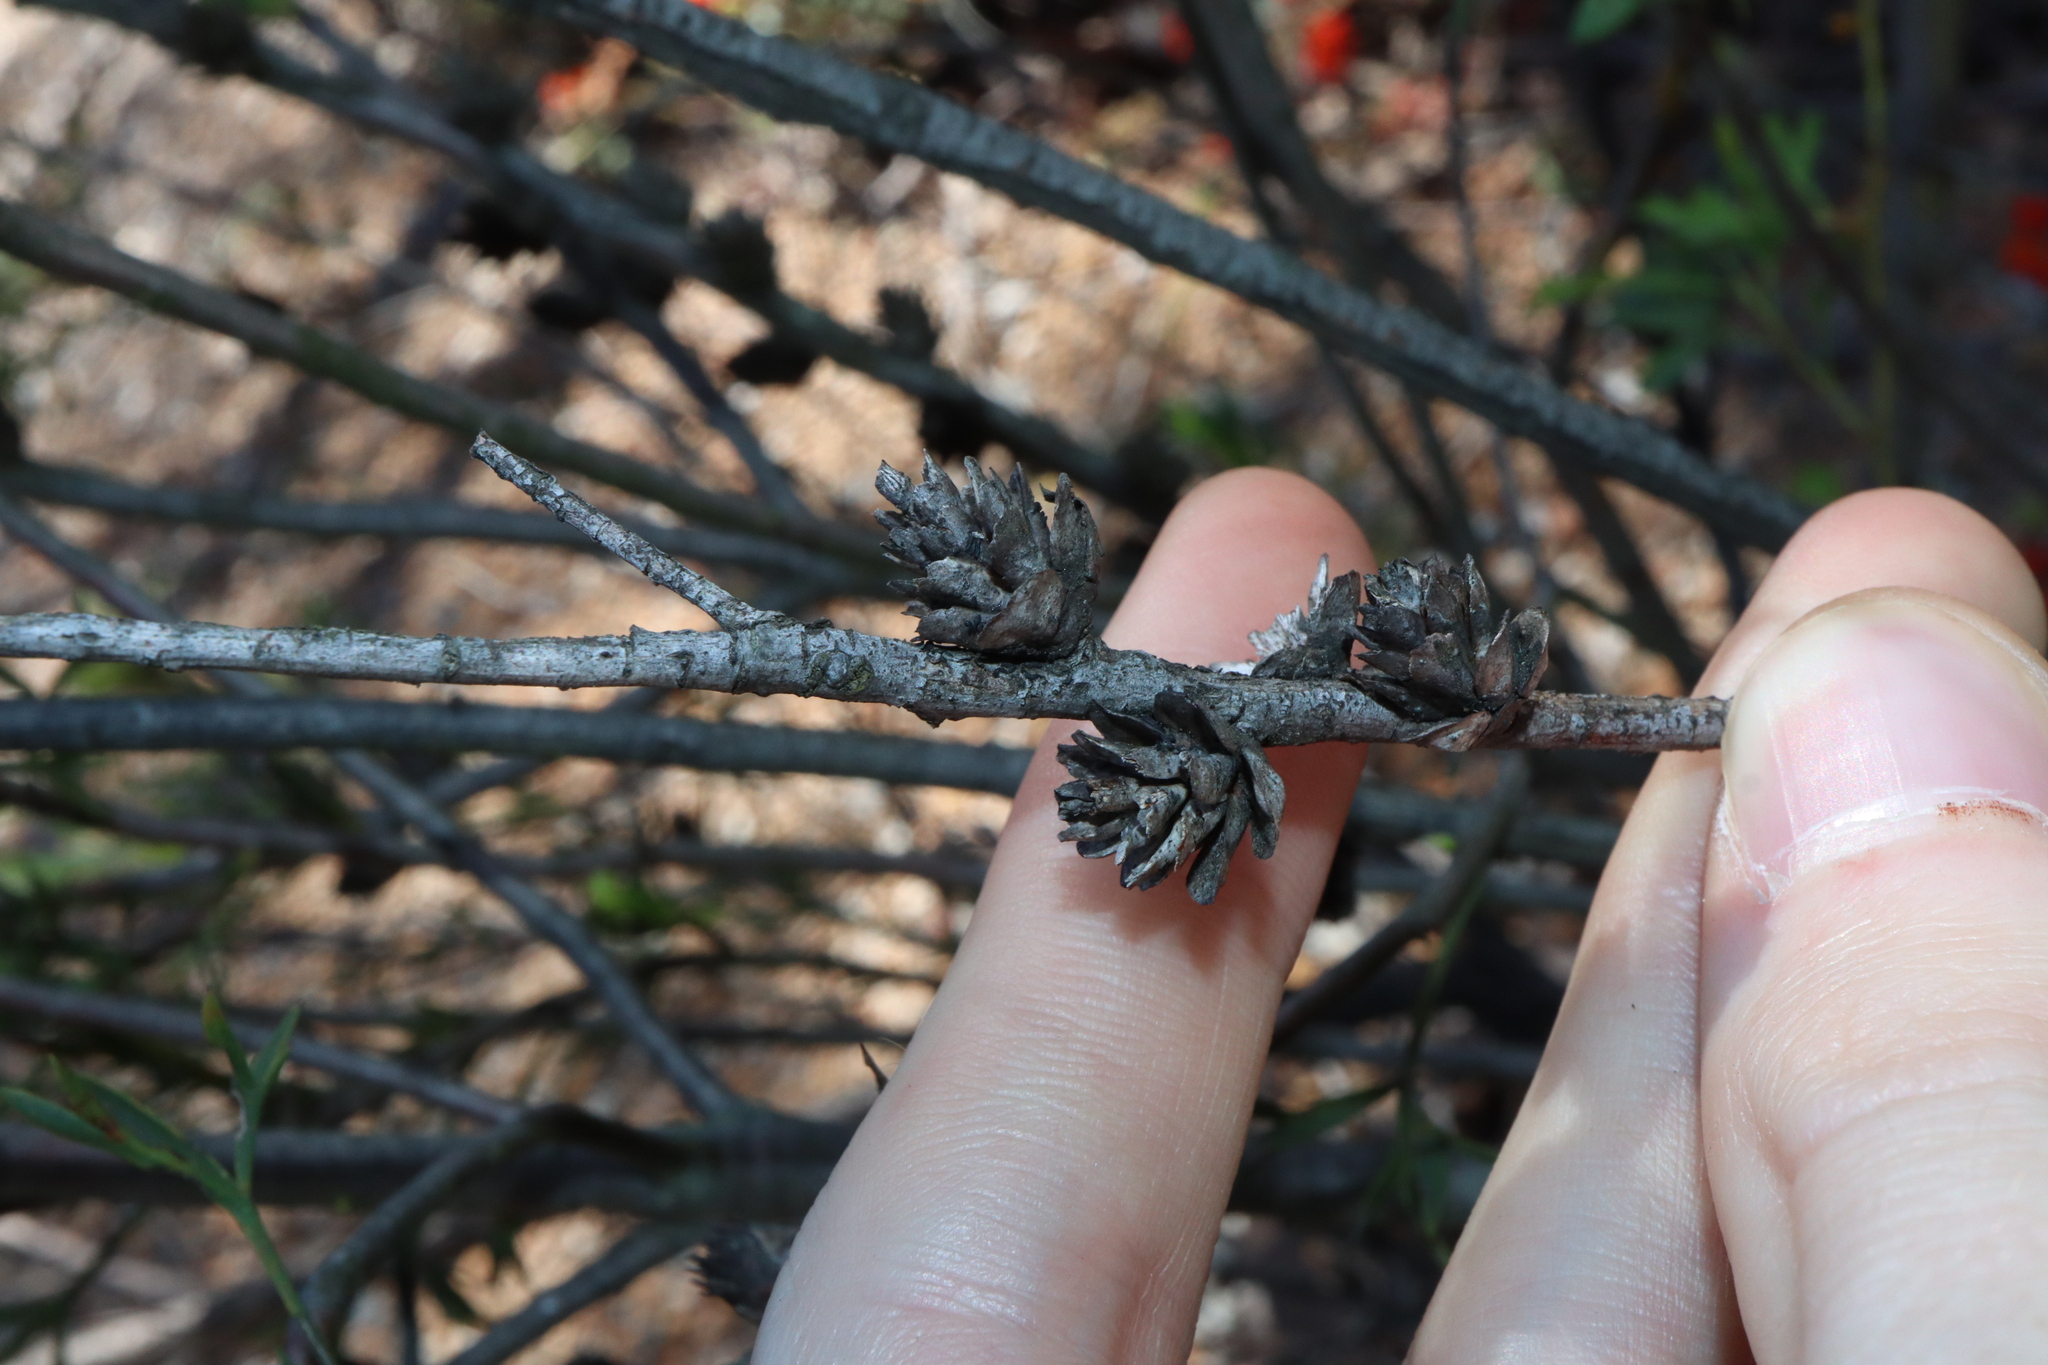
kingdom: Plantae
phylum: Tracheophyta
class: Magnoliopsida
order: Proteales
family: Proteaceae
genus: Petrophile
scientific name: Petrophile squamata
